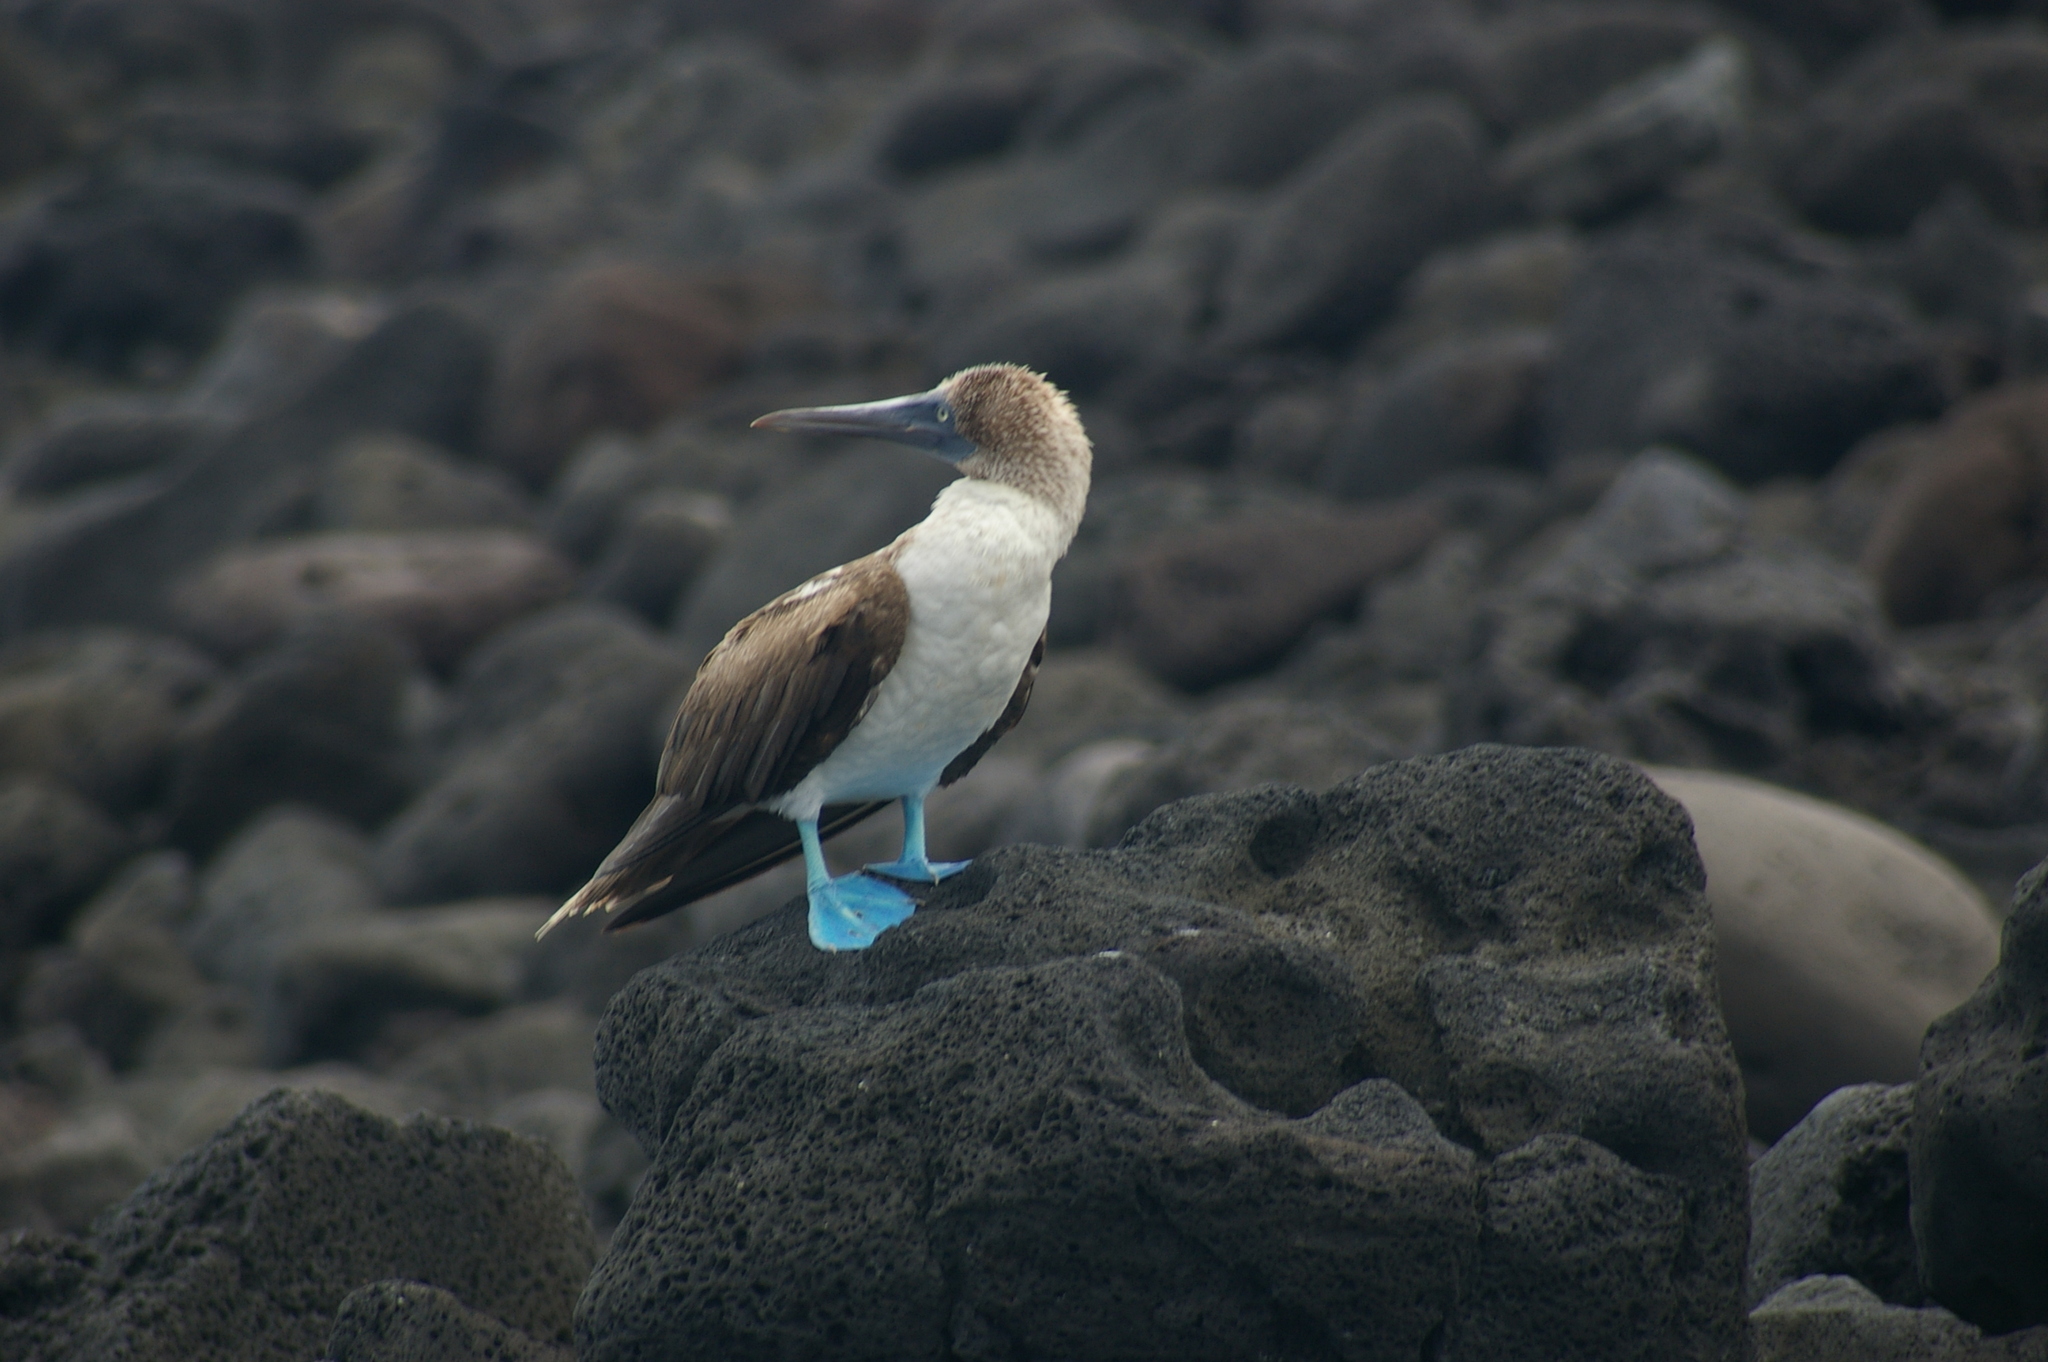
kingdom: Animalia
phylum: Chordata
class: Aves
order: Suliformes
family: Sulidae
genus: Sula
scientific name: Sula nebouxii
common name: Blue-footed booby
